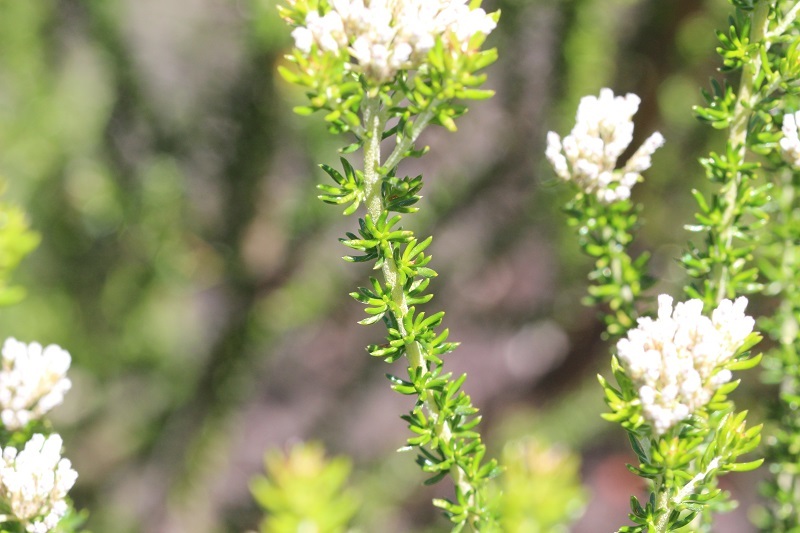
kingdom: Plantae
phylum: Tracheophyta
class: Magnoliopsida
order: Asterales
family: Asteraceae
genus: Metalasia
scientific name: Metalasia trivialis
